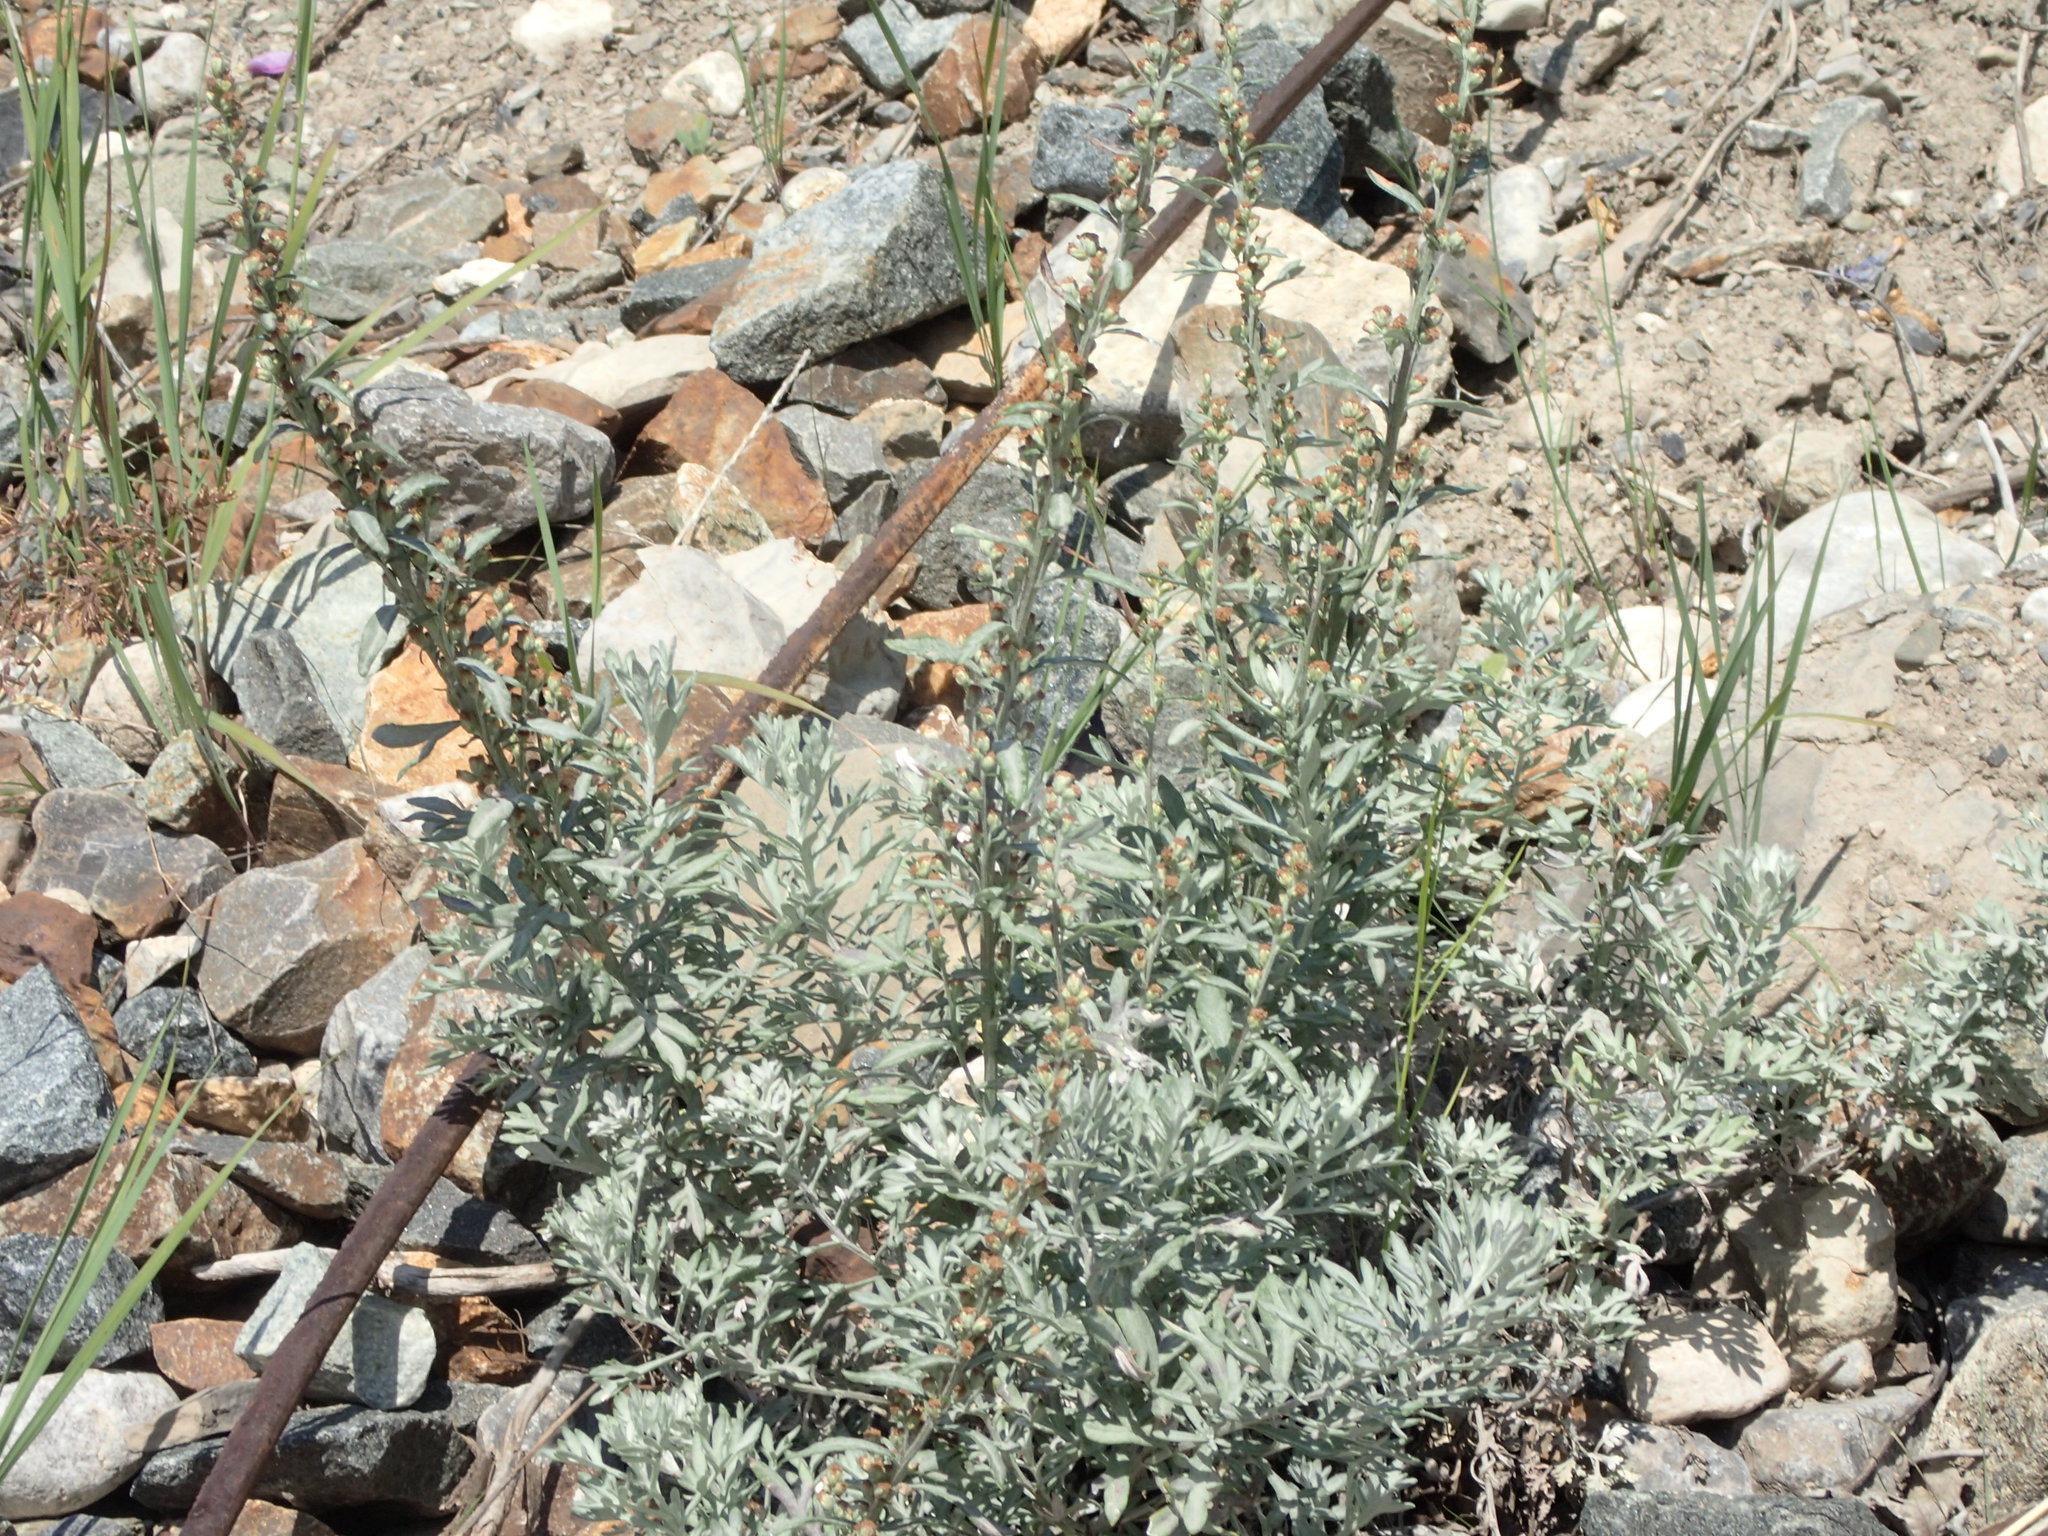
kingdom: Plantae
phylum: Tracheophyta
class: Magnoliopsida
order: Asterales
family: Asteraceae
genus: Artemisia
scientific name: Artemisia absinthium
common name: Wormwood
